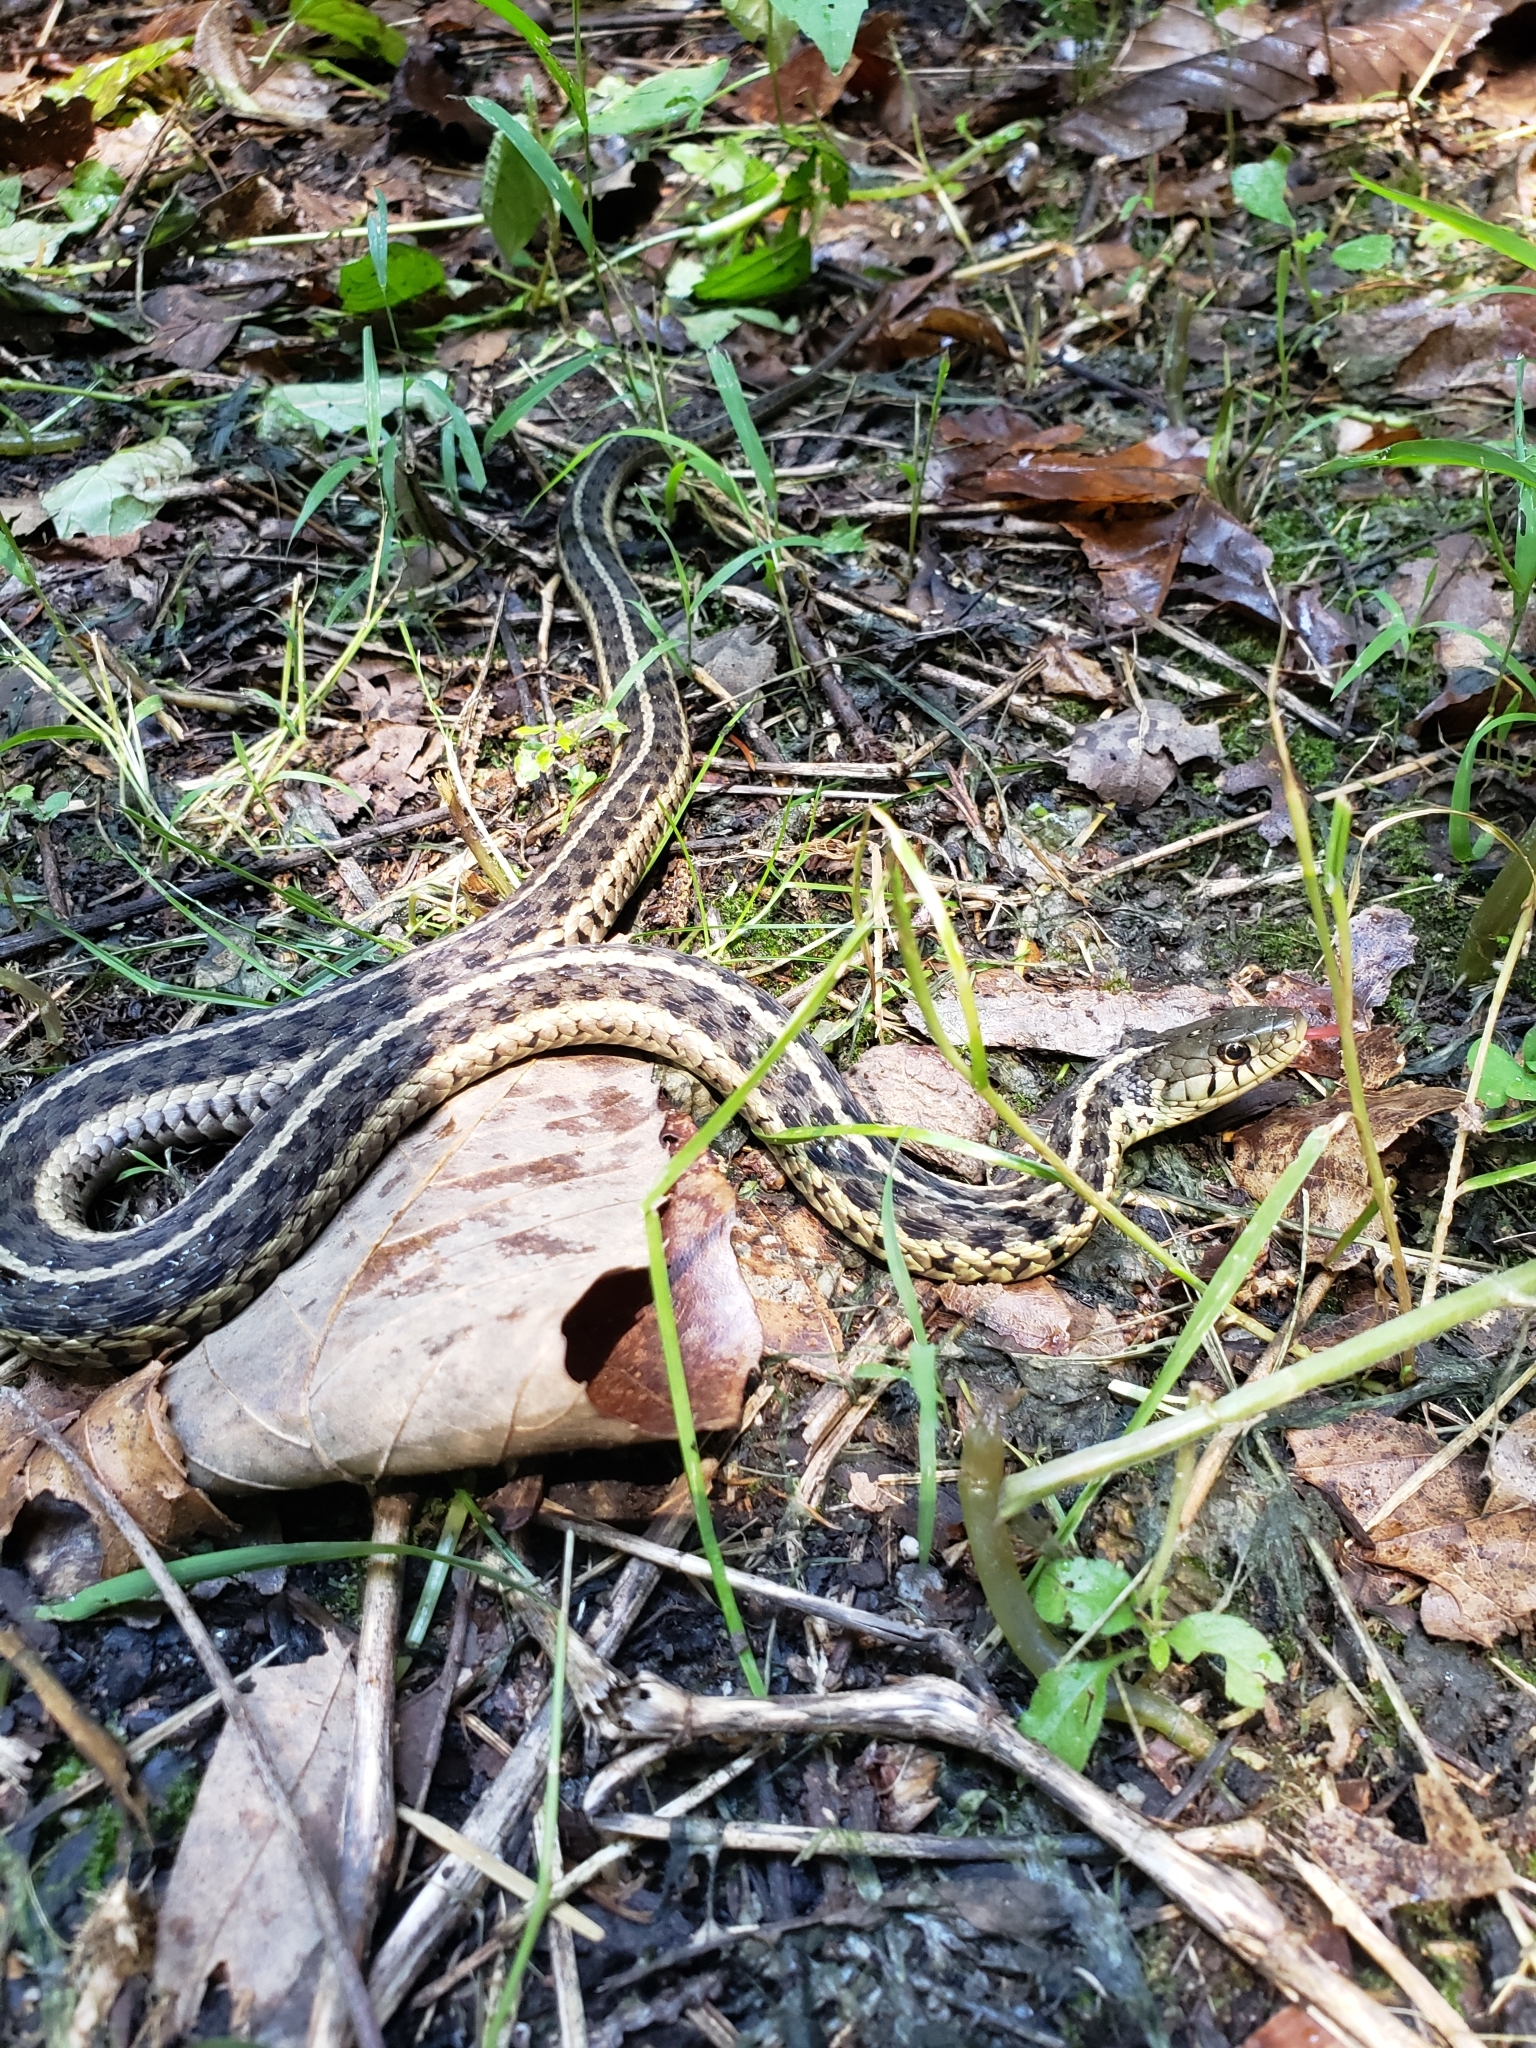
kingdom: Animalia
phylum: Chordata
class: Squamata
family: Colubridae
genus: Thamnophis
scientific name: Thamnophis sirtalis
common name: Common garter snake
